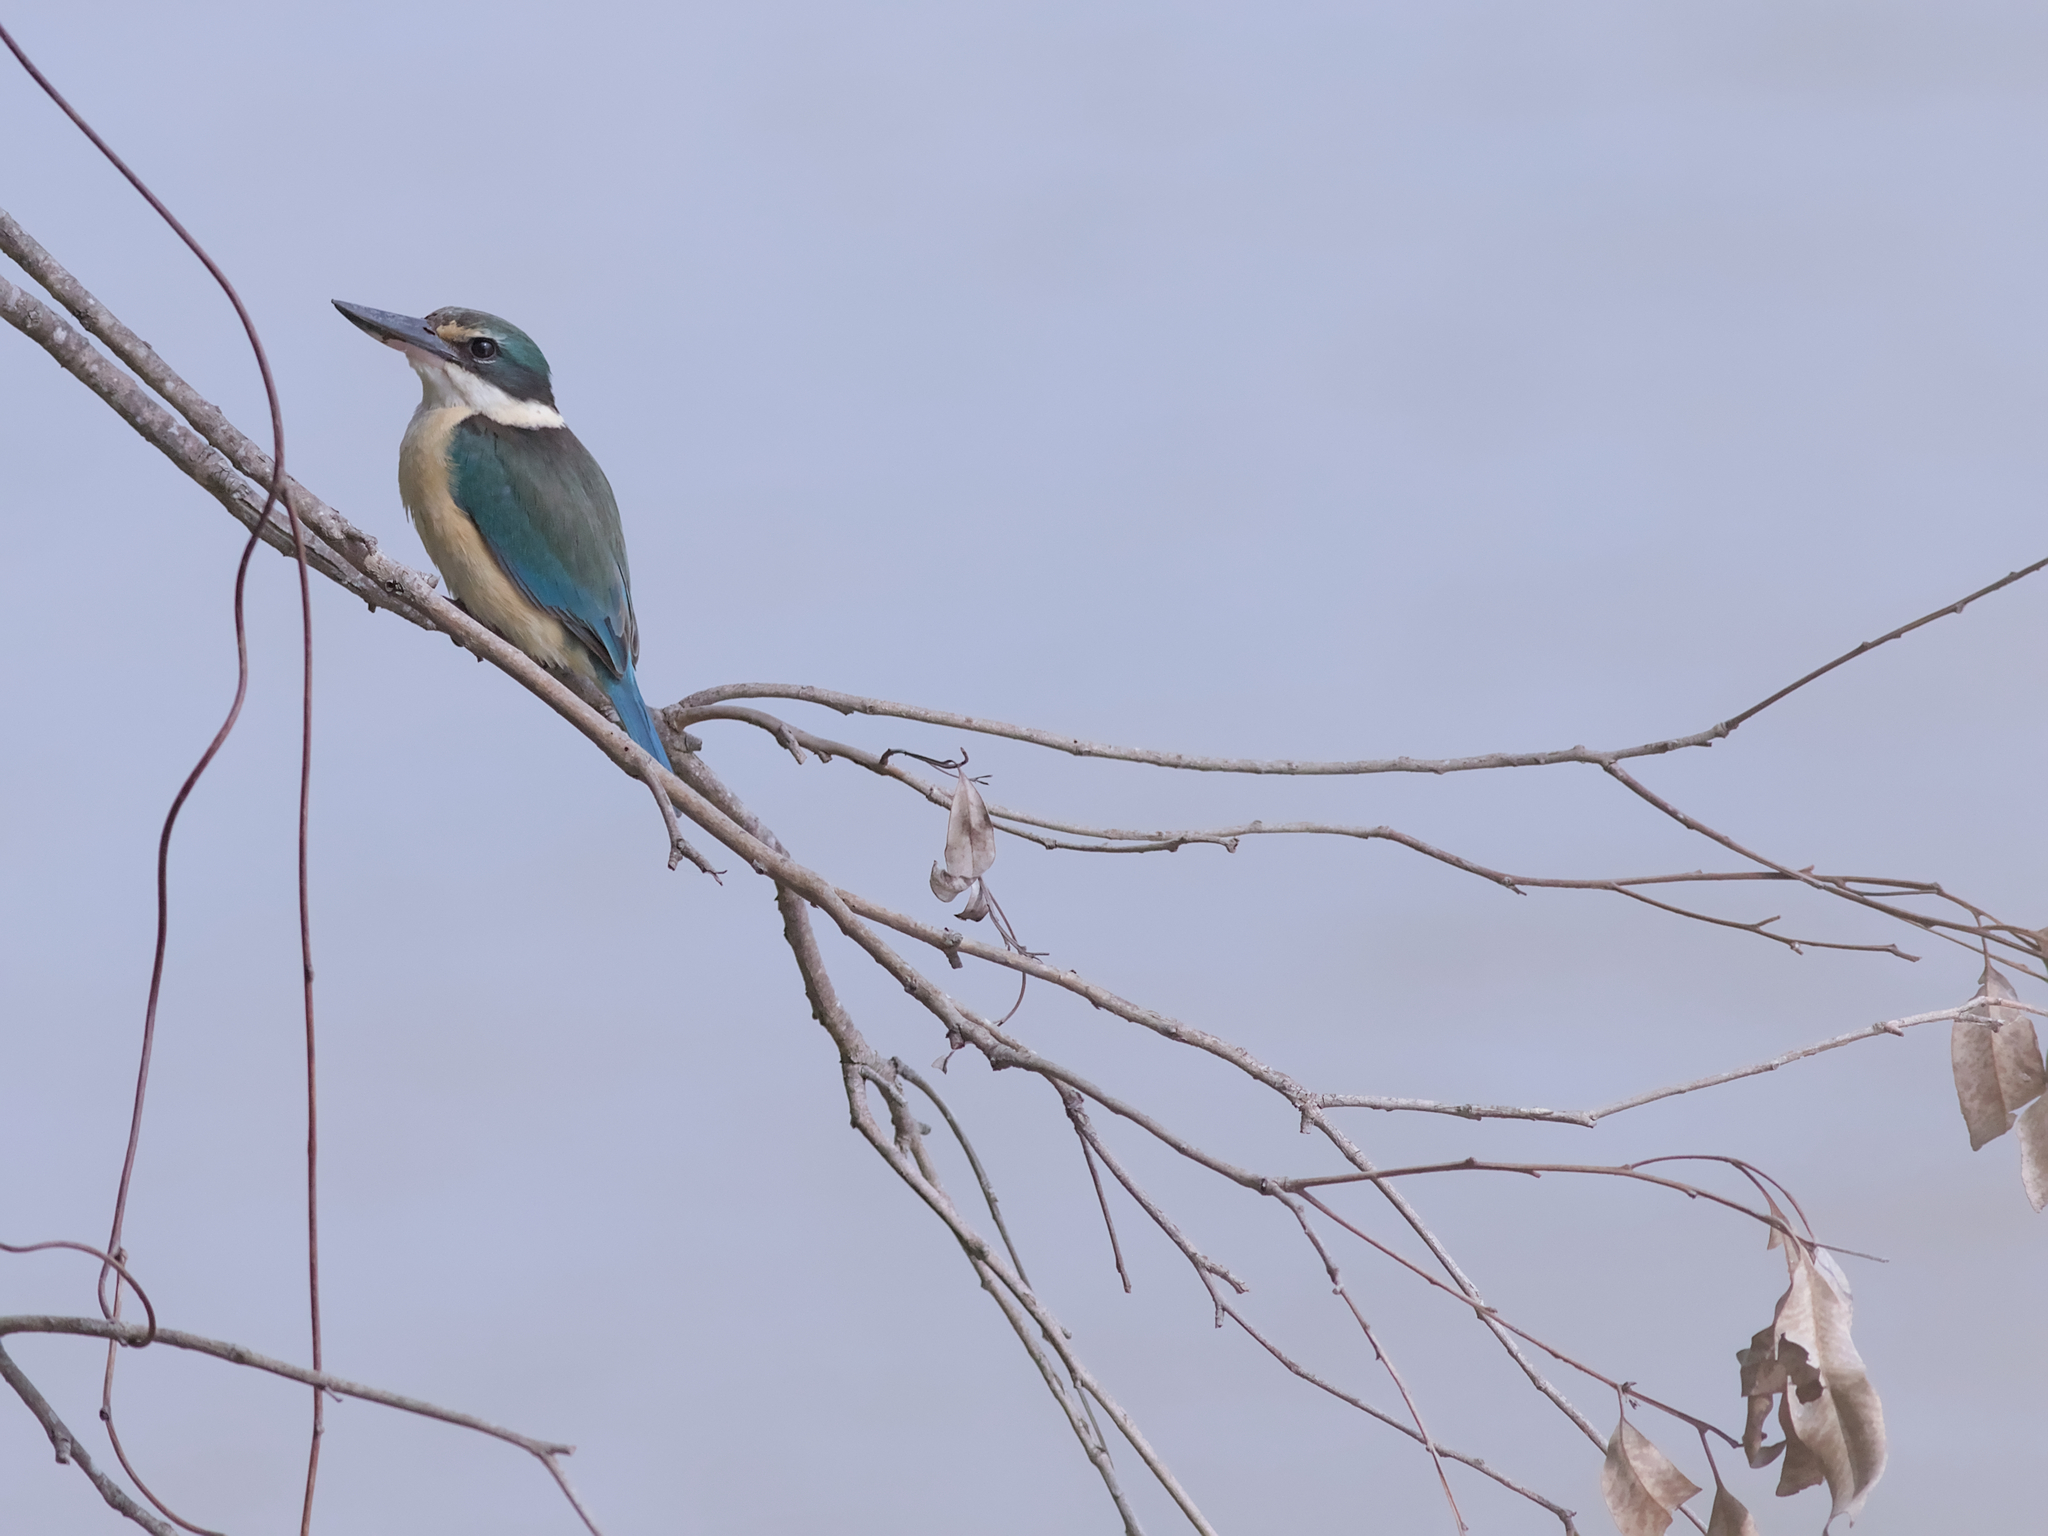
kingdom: Animalia
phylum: Chordata
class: Aves
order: Coraciiformes
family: Alcedinidae
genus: Todiramphus
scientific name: Todiramphus sanctus
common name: Sacred kingfisher
